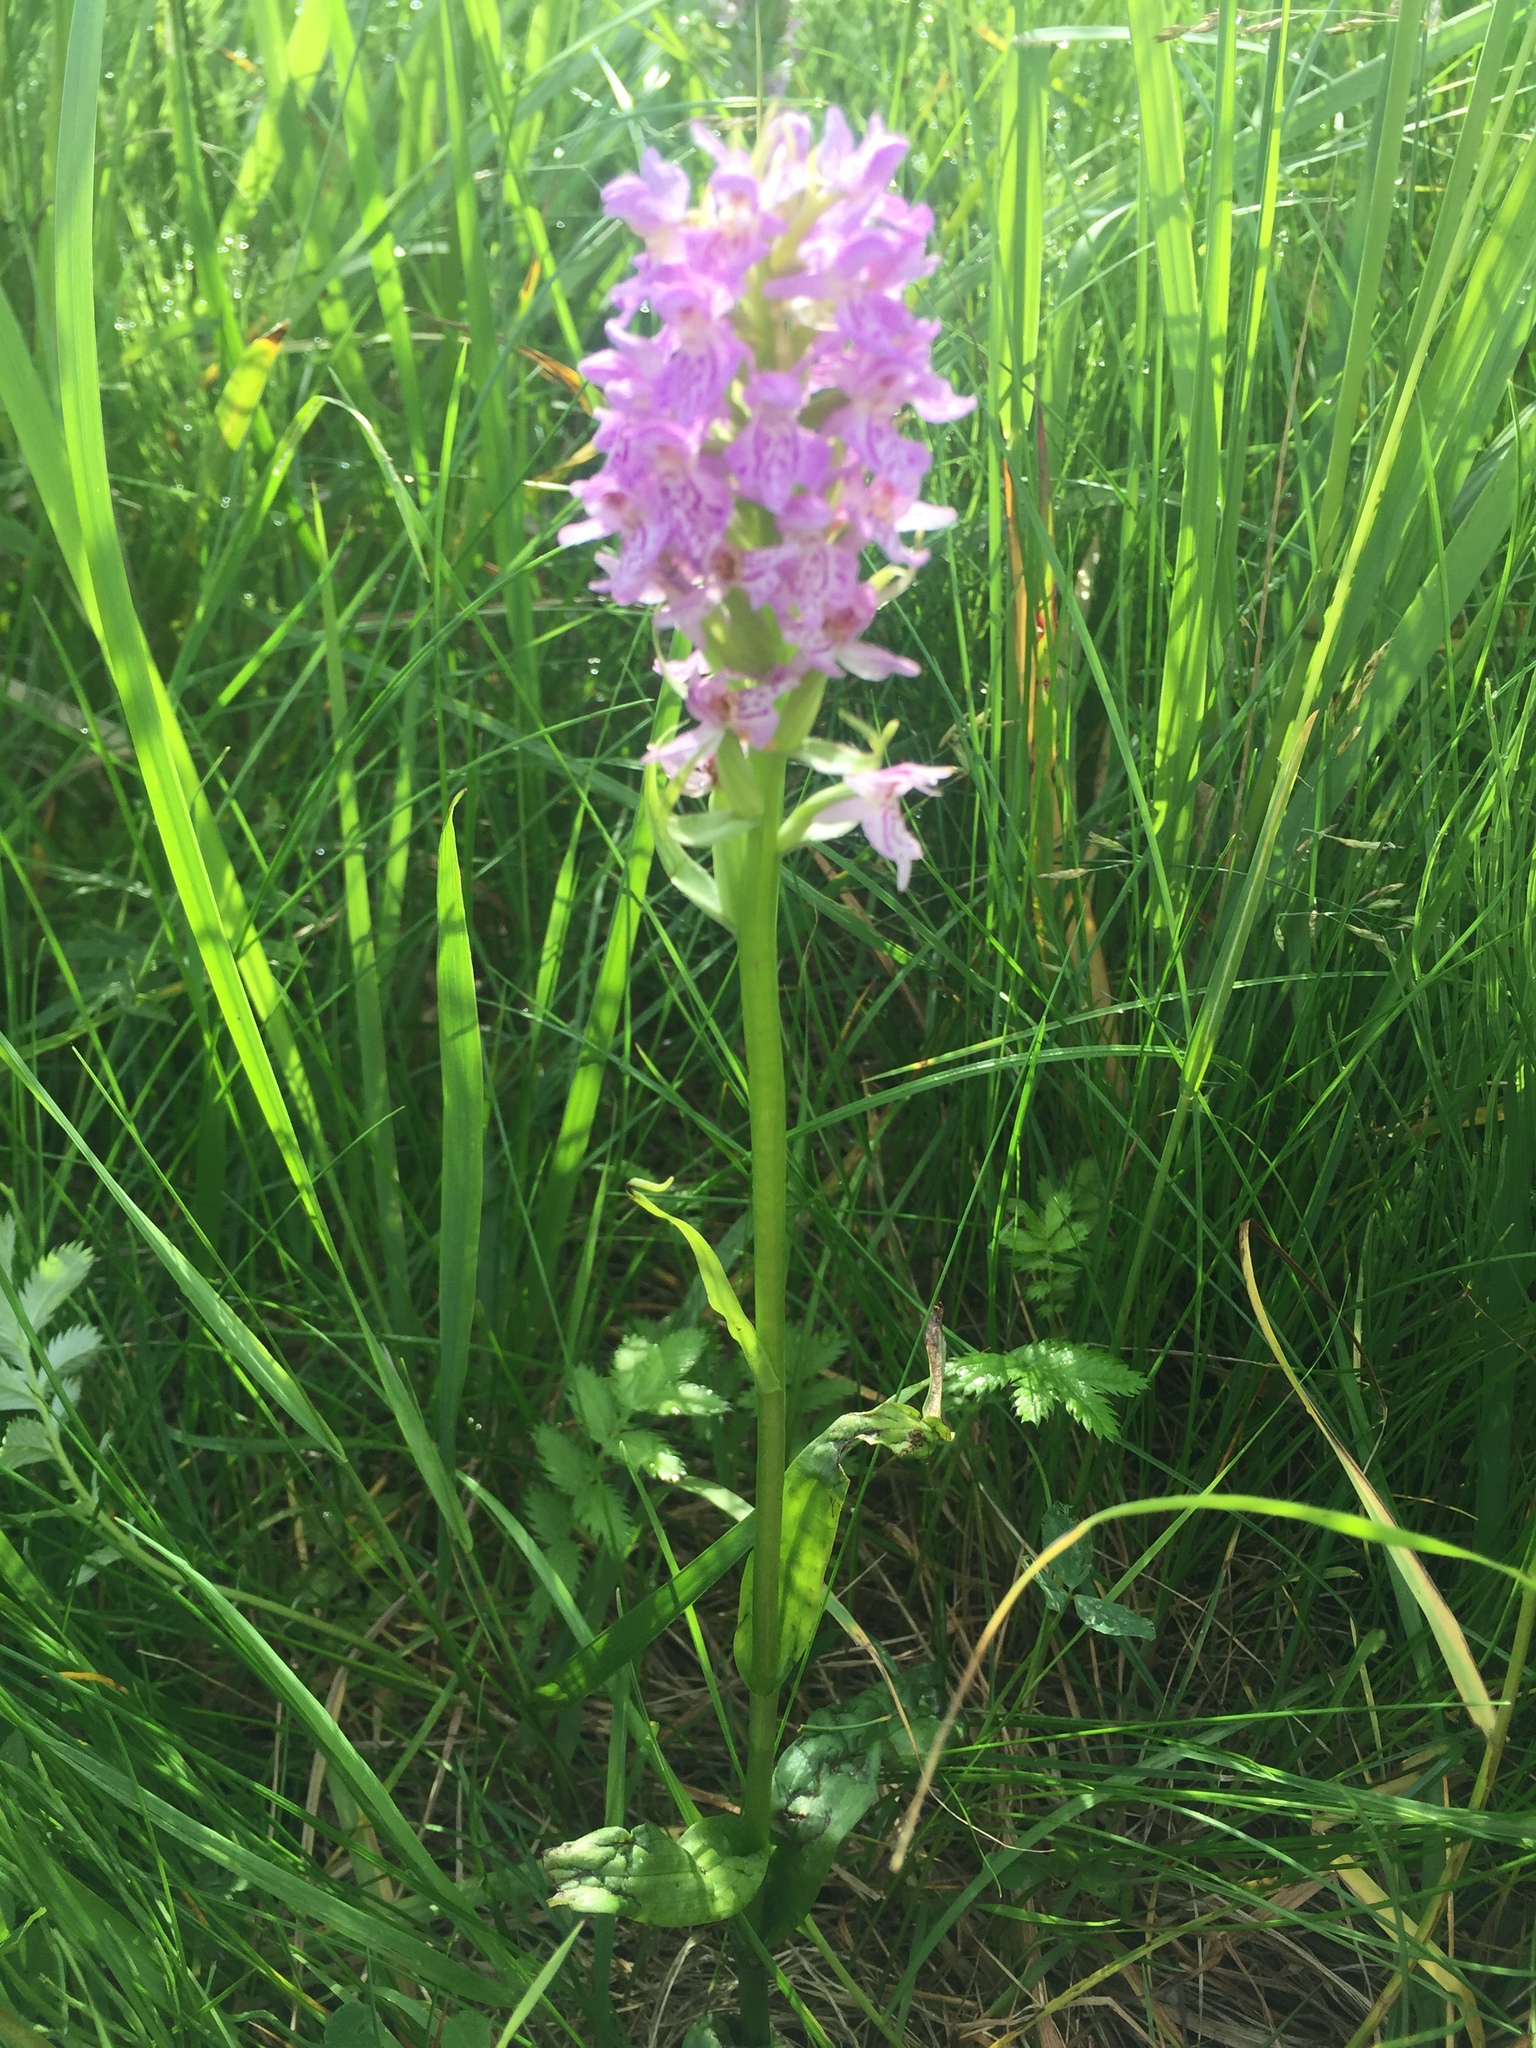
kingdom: Plantae
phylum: Tracheophyta
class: Liliopsida
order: Asparagales
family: Orchidaceae
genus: Dactylorhiza
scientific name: Dactylorhiza majalis
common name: Marsh orchid
